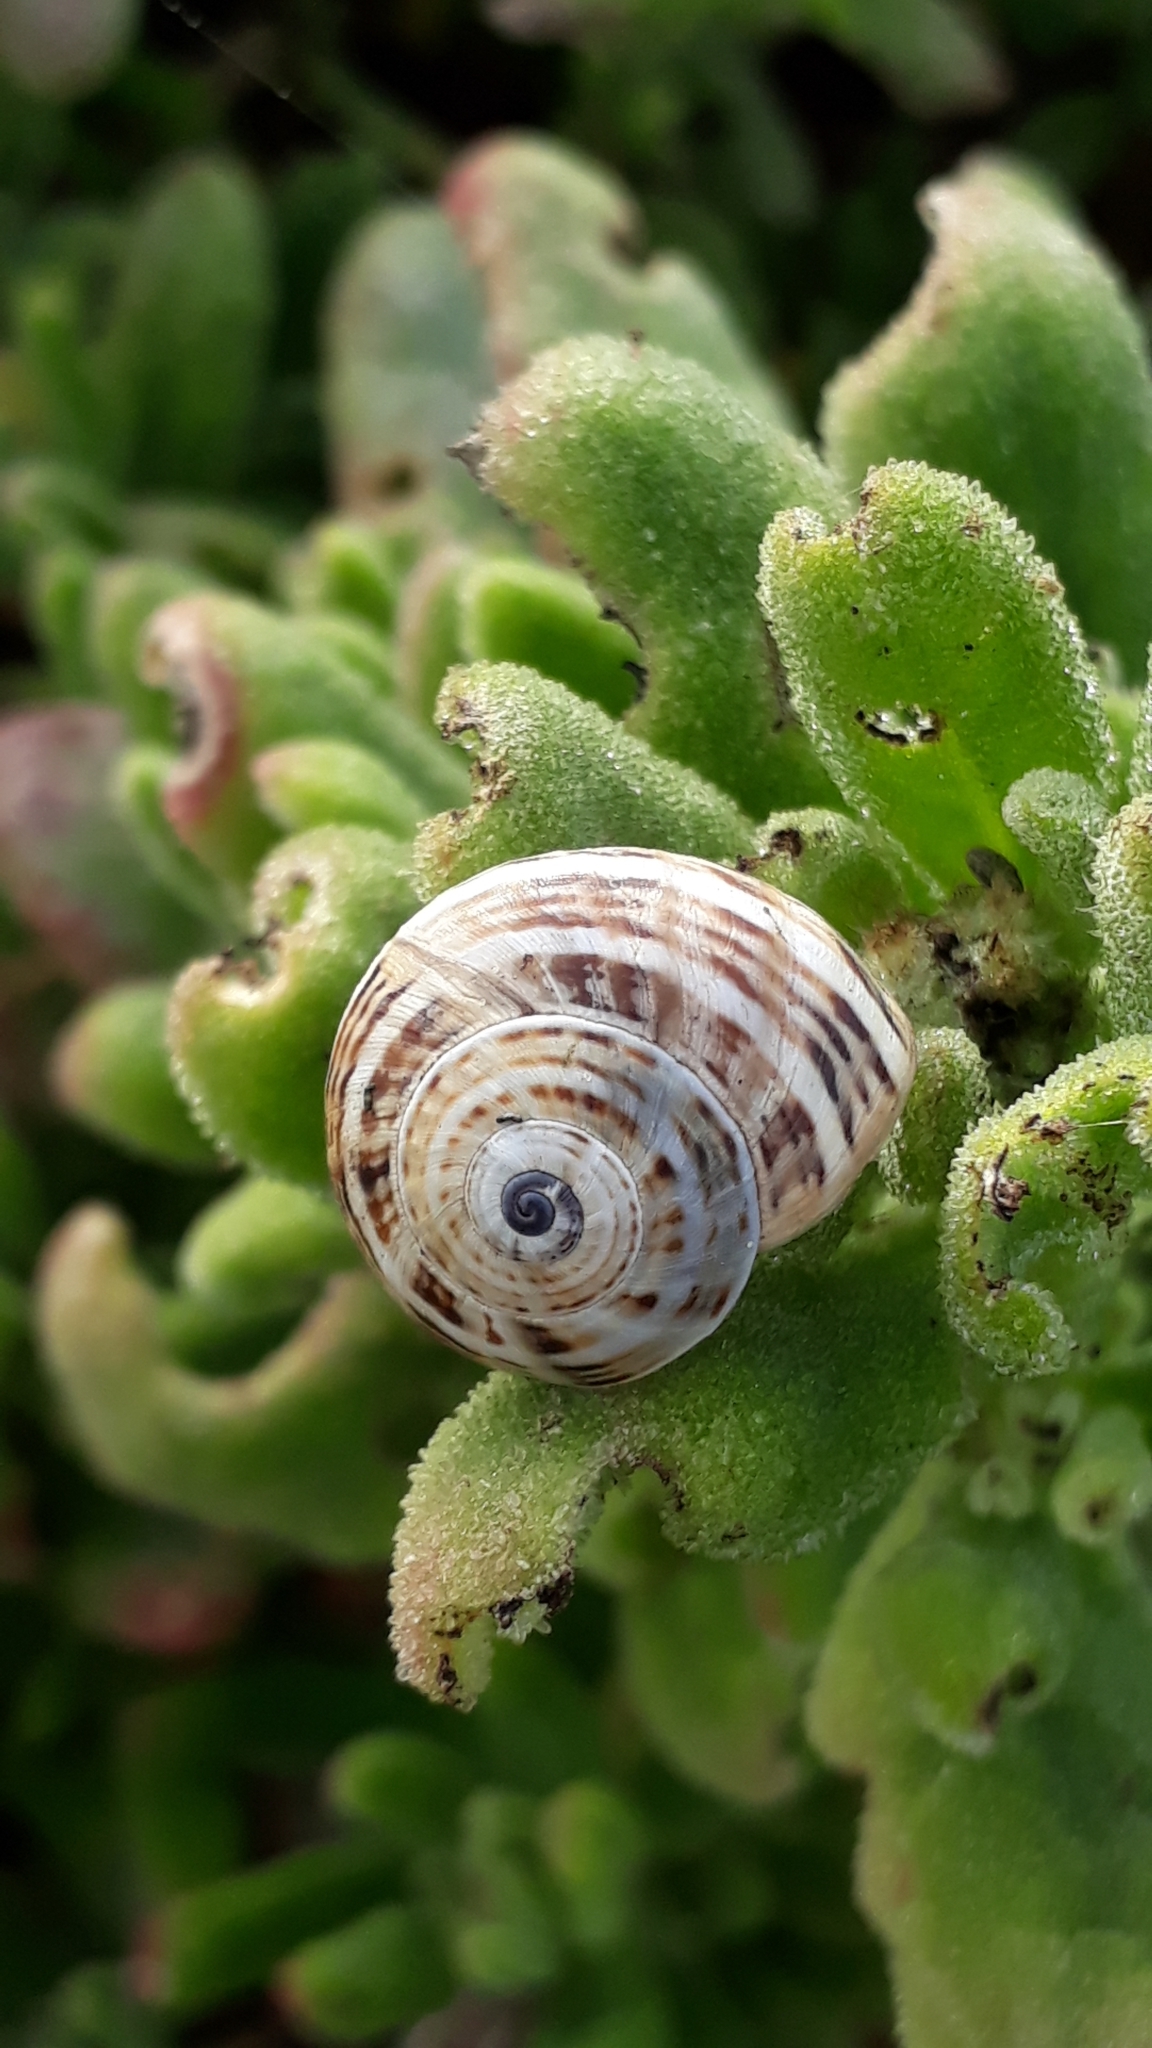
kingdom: Animalia
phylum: Mollusca
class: Gastropoda
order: Stylommatophora
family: Helicidae
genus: Theba
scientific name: Theba pisana
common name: White snail
